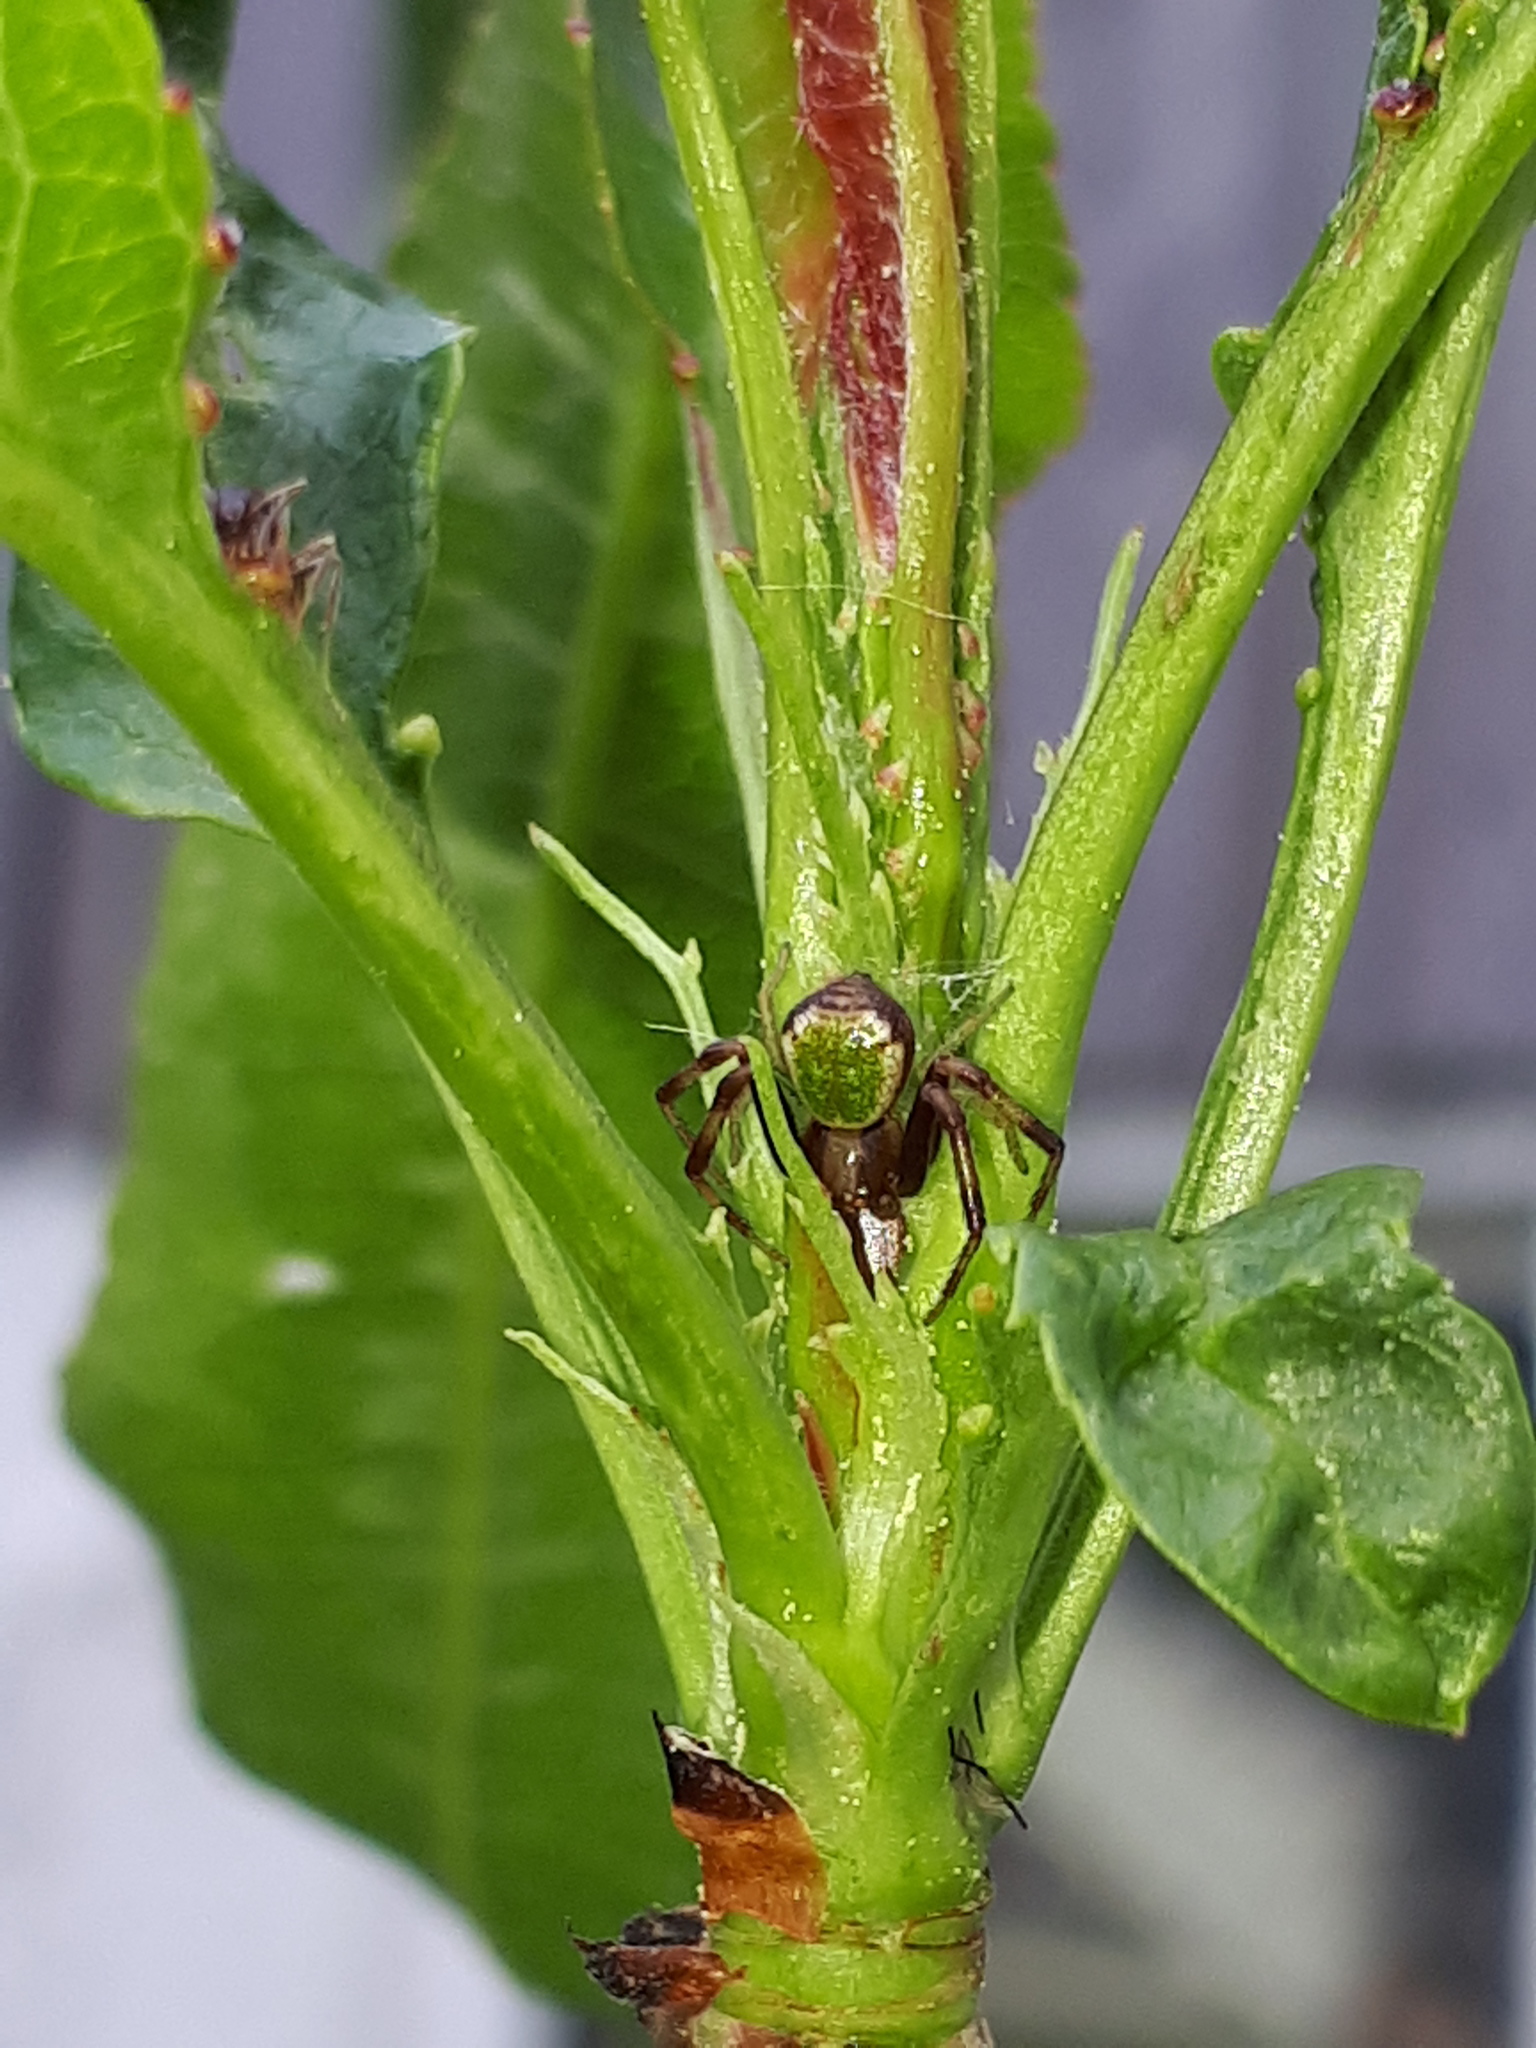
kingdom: Animalia
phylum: Arthropoda
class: Arachnida
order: Araneae
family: Thomisidae
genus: Ebrechtella
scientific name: Ebrechtella tricuspidata
